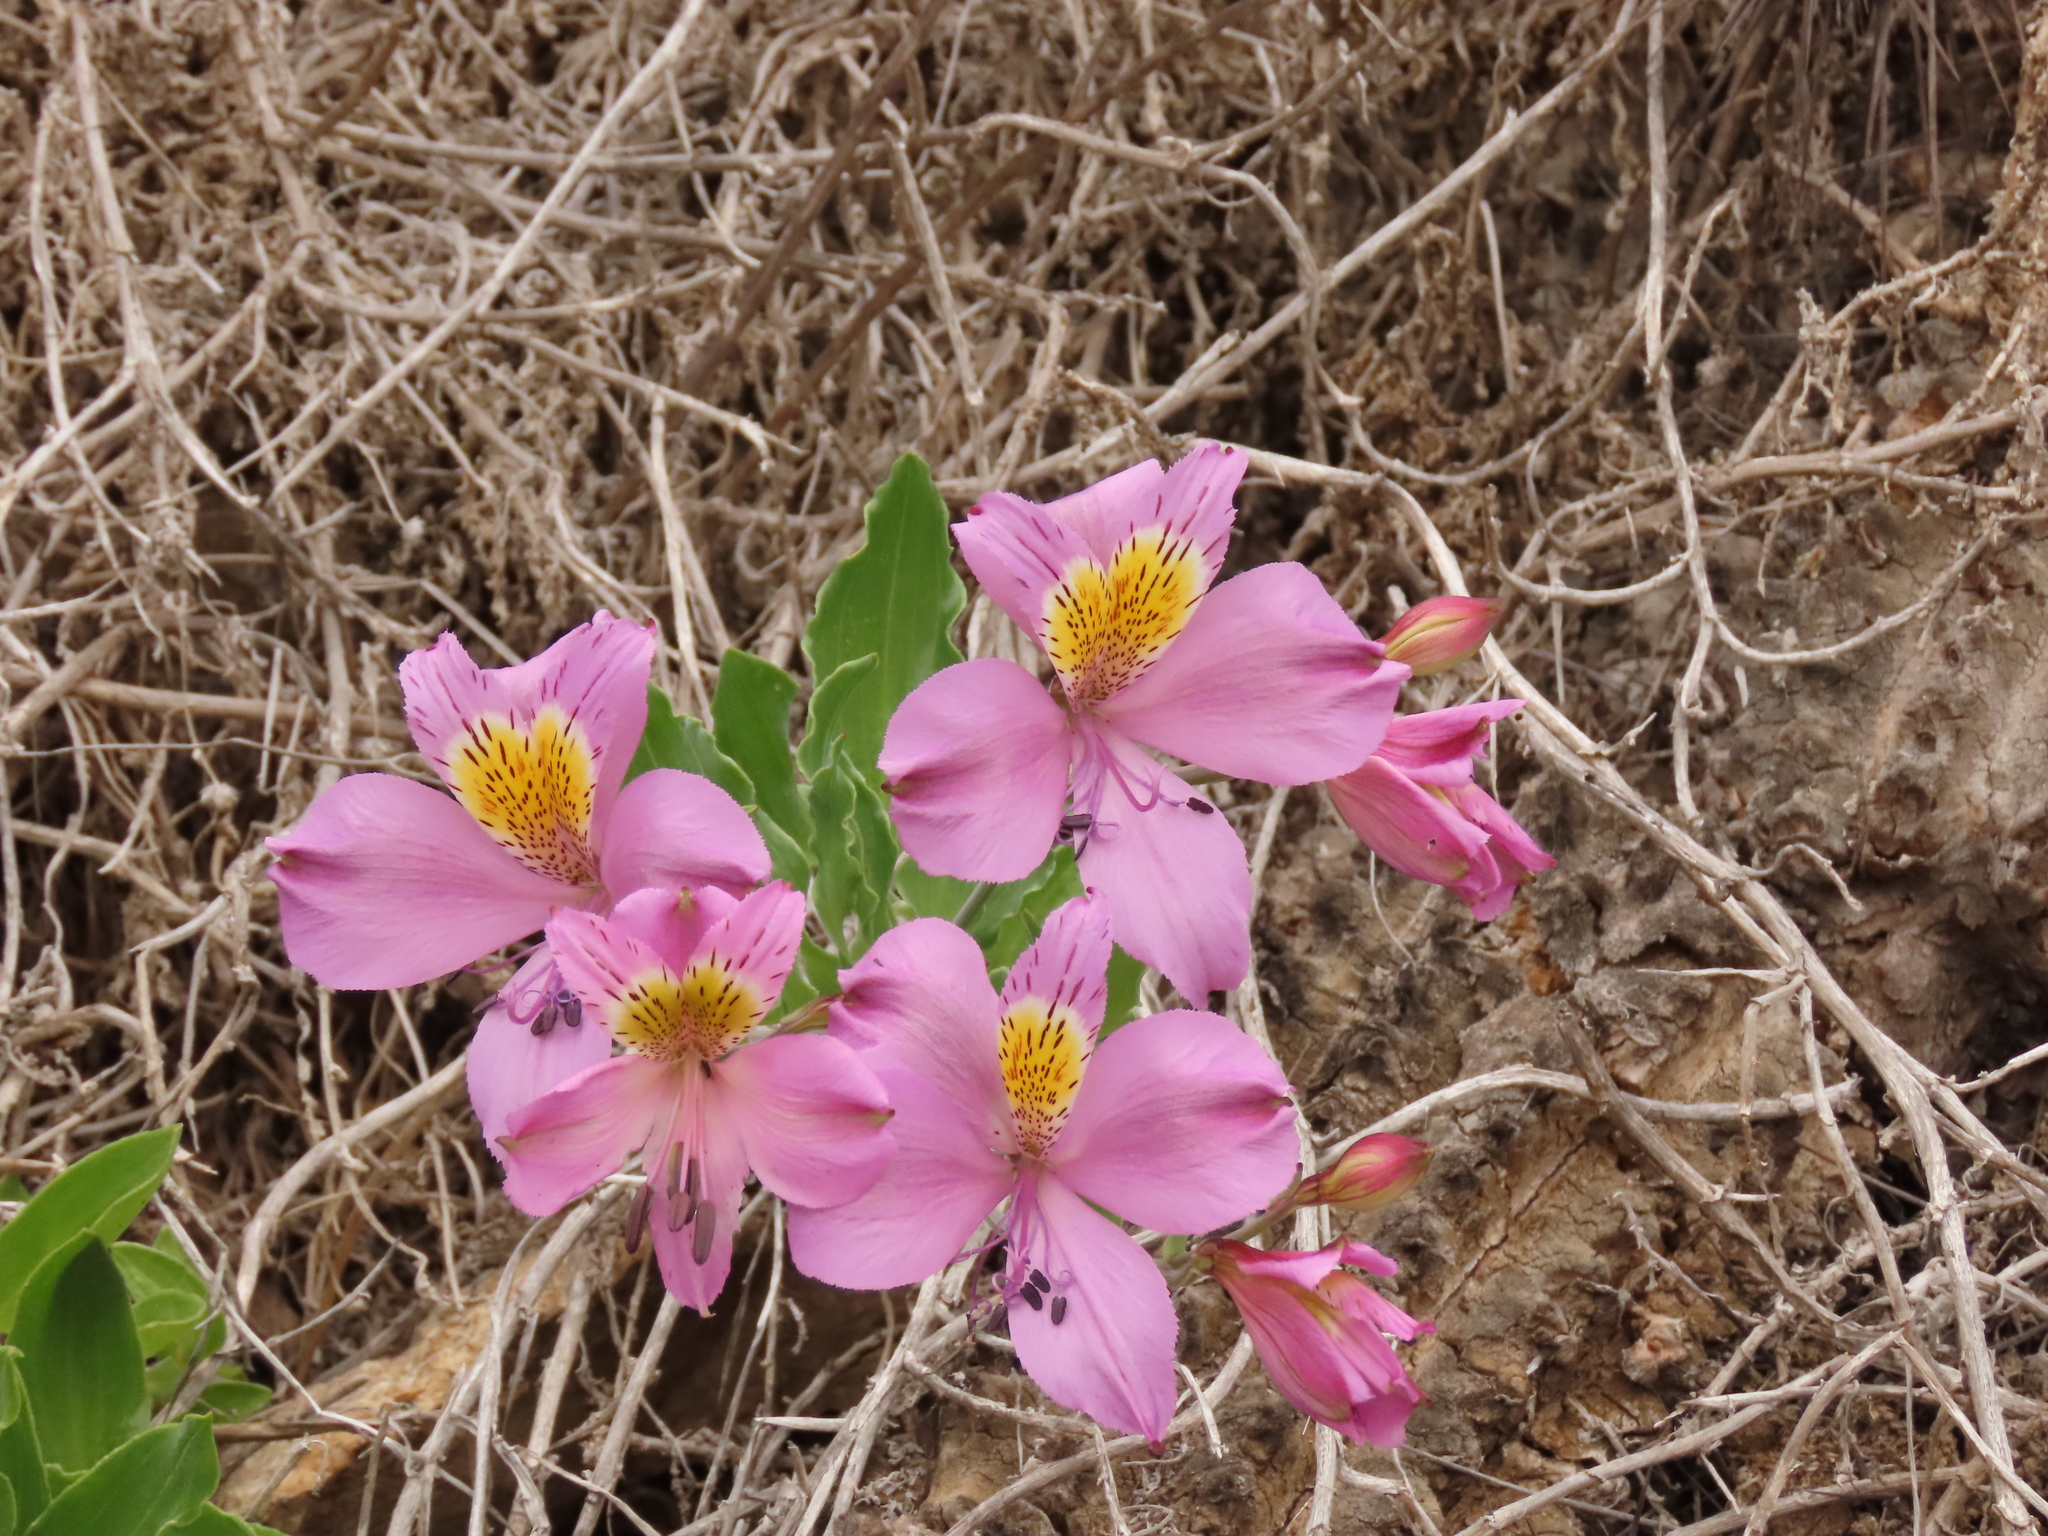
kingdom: Plantae
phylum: Tracheophyta
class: Liliopsida
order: Liliales
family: Alstroemeriaceae
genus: Alstroemeria
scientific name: Alstroemeria violacea
